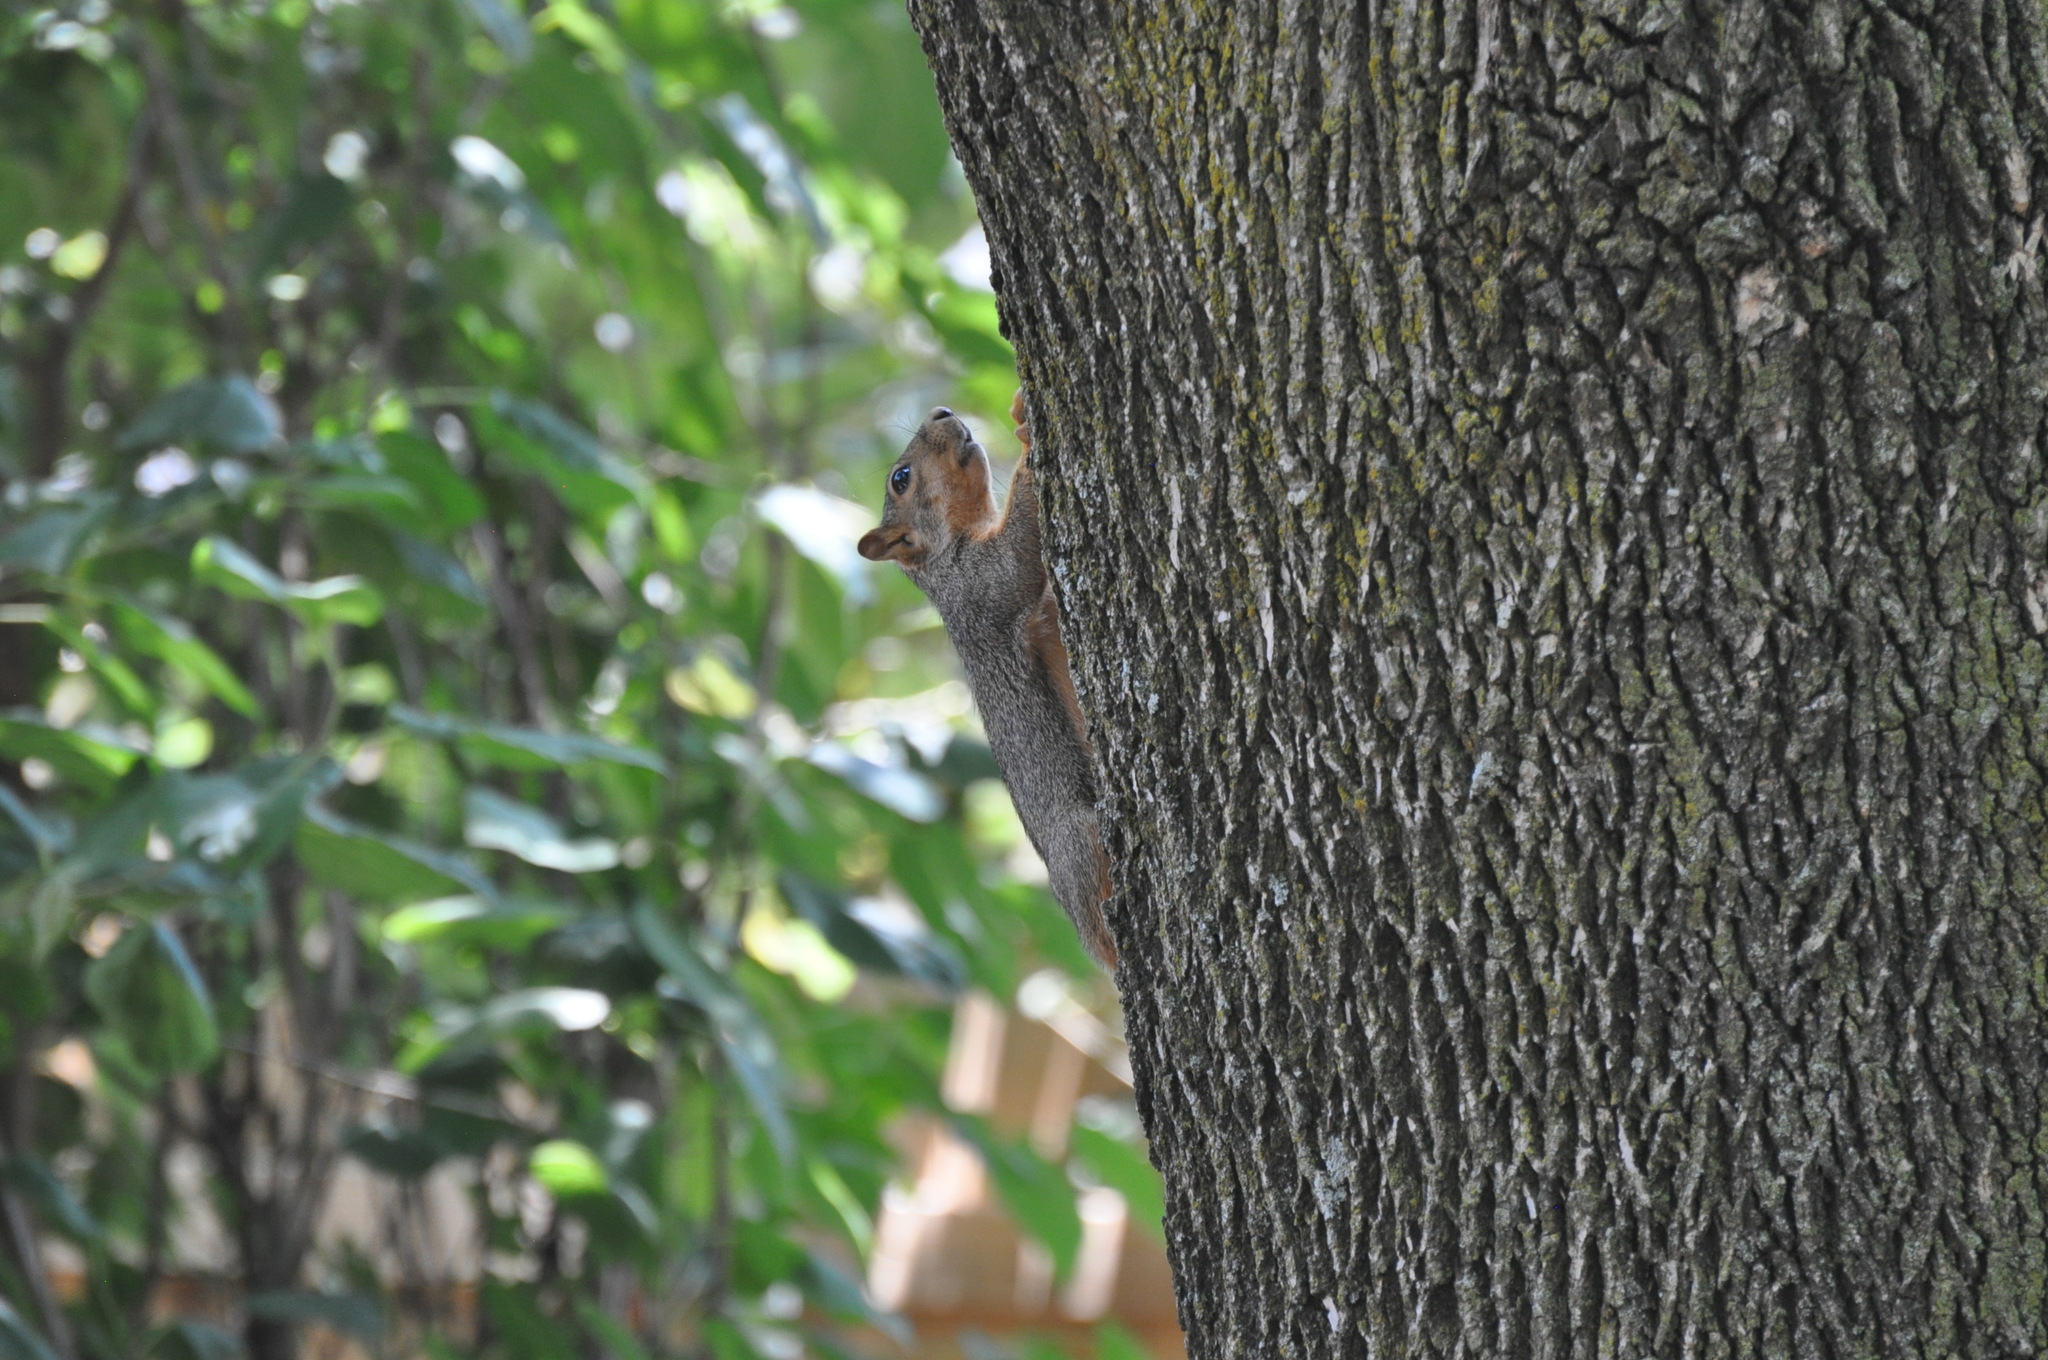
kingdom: Animalia
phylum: Chordata
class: Mammalia
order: Rodentia
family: Sciuridae
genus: Sciurus
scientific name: Sciurus niger
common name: Fox squirrel
